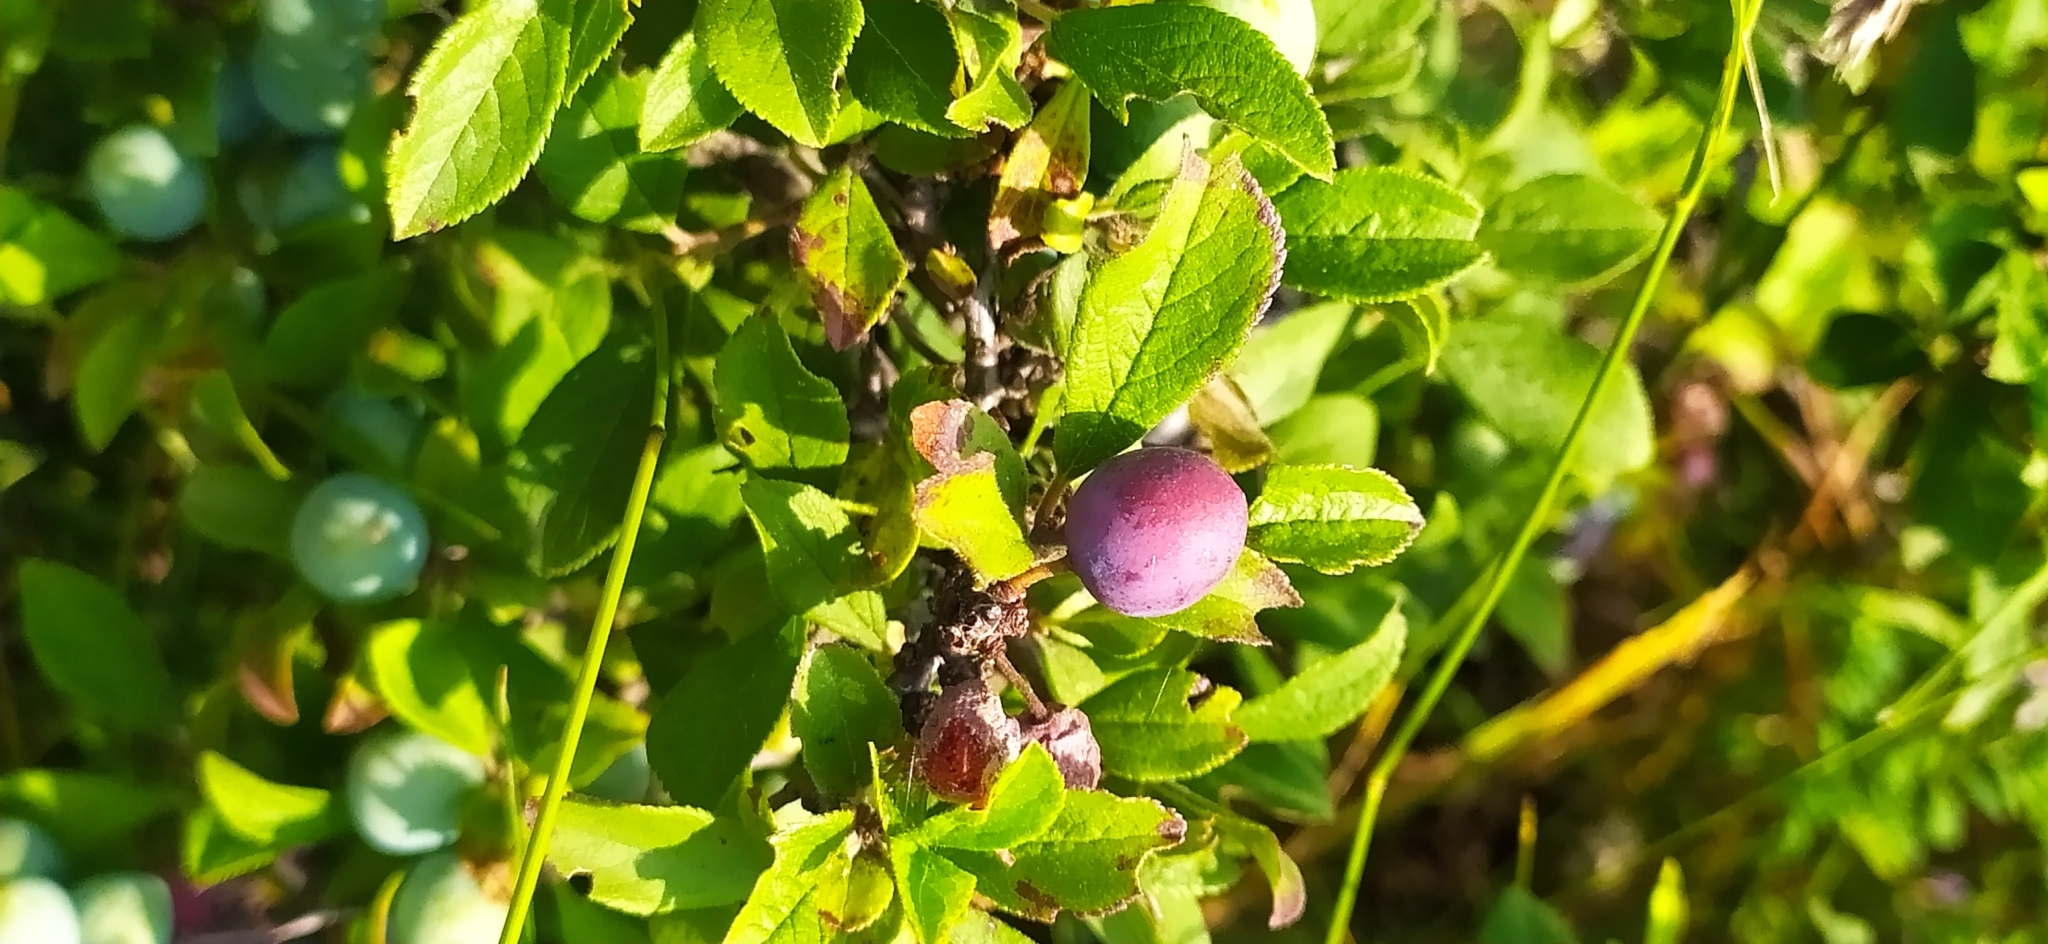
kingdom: Plantae
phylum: Tracheophyta
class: Magnoliopsida
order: Rosales
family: Rosaceae
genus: Prunus
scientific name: Prunus spinosa
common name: Blackthorn
